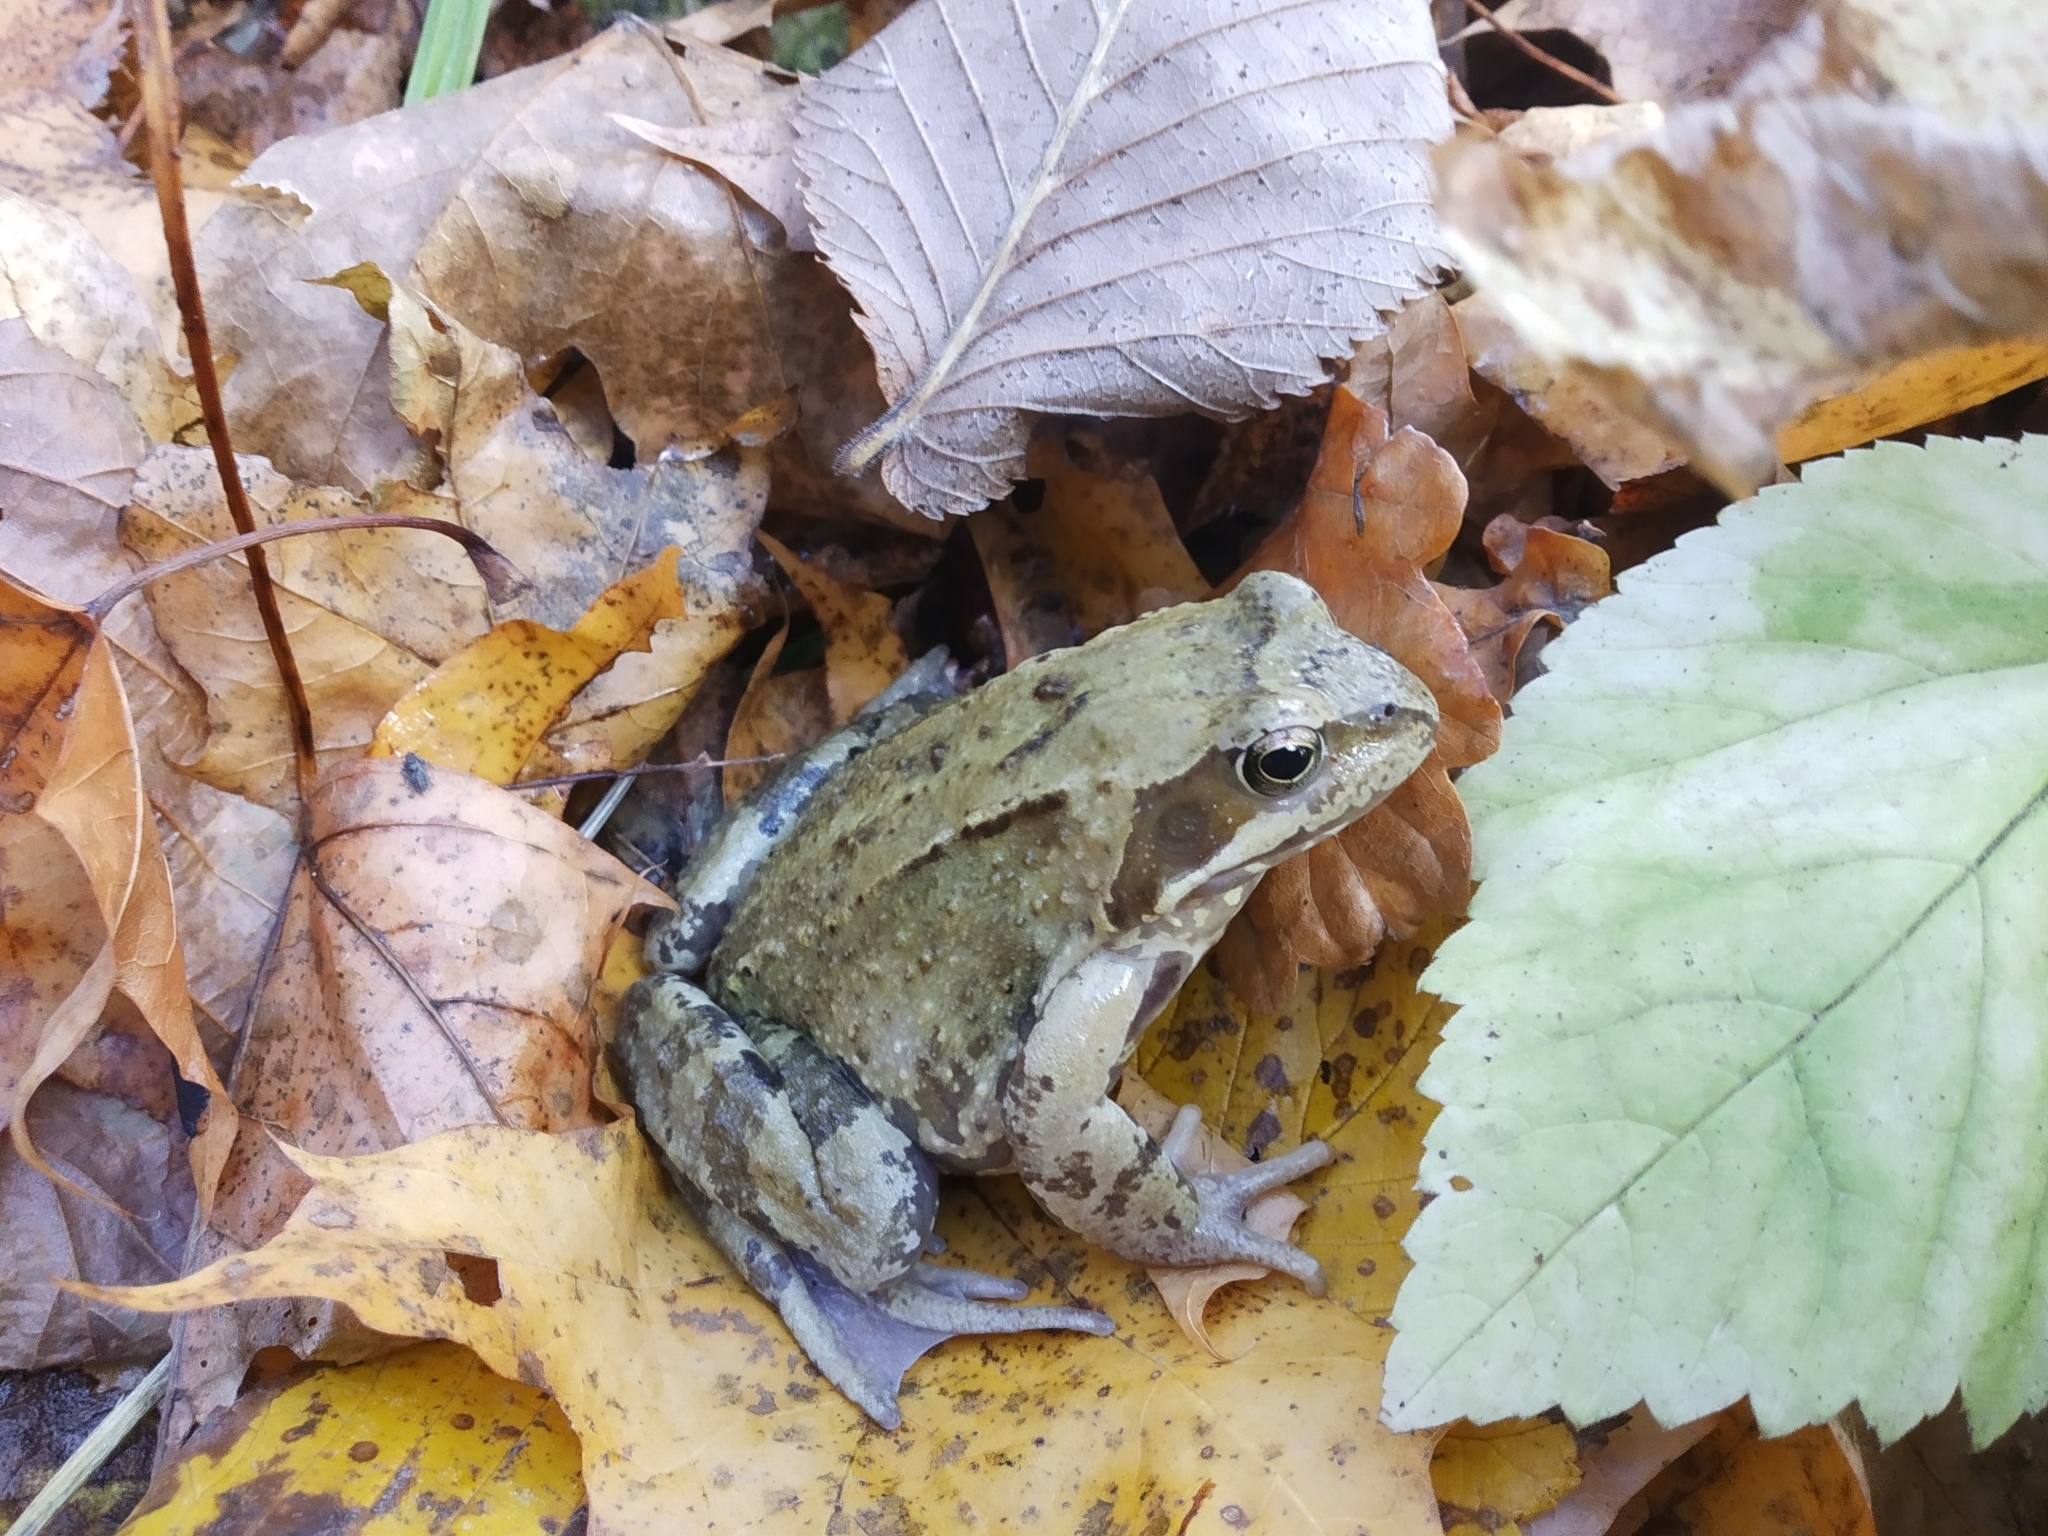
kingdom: Animalia
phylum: Chordata
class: Amphibia
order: Anura
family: Ranidae
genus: Rana
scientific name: Rana temporaria
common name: Common frog
